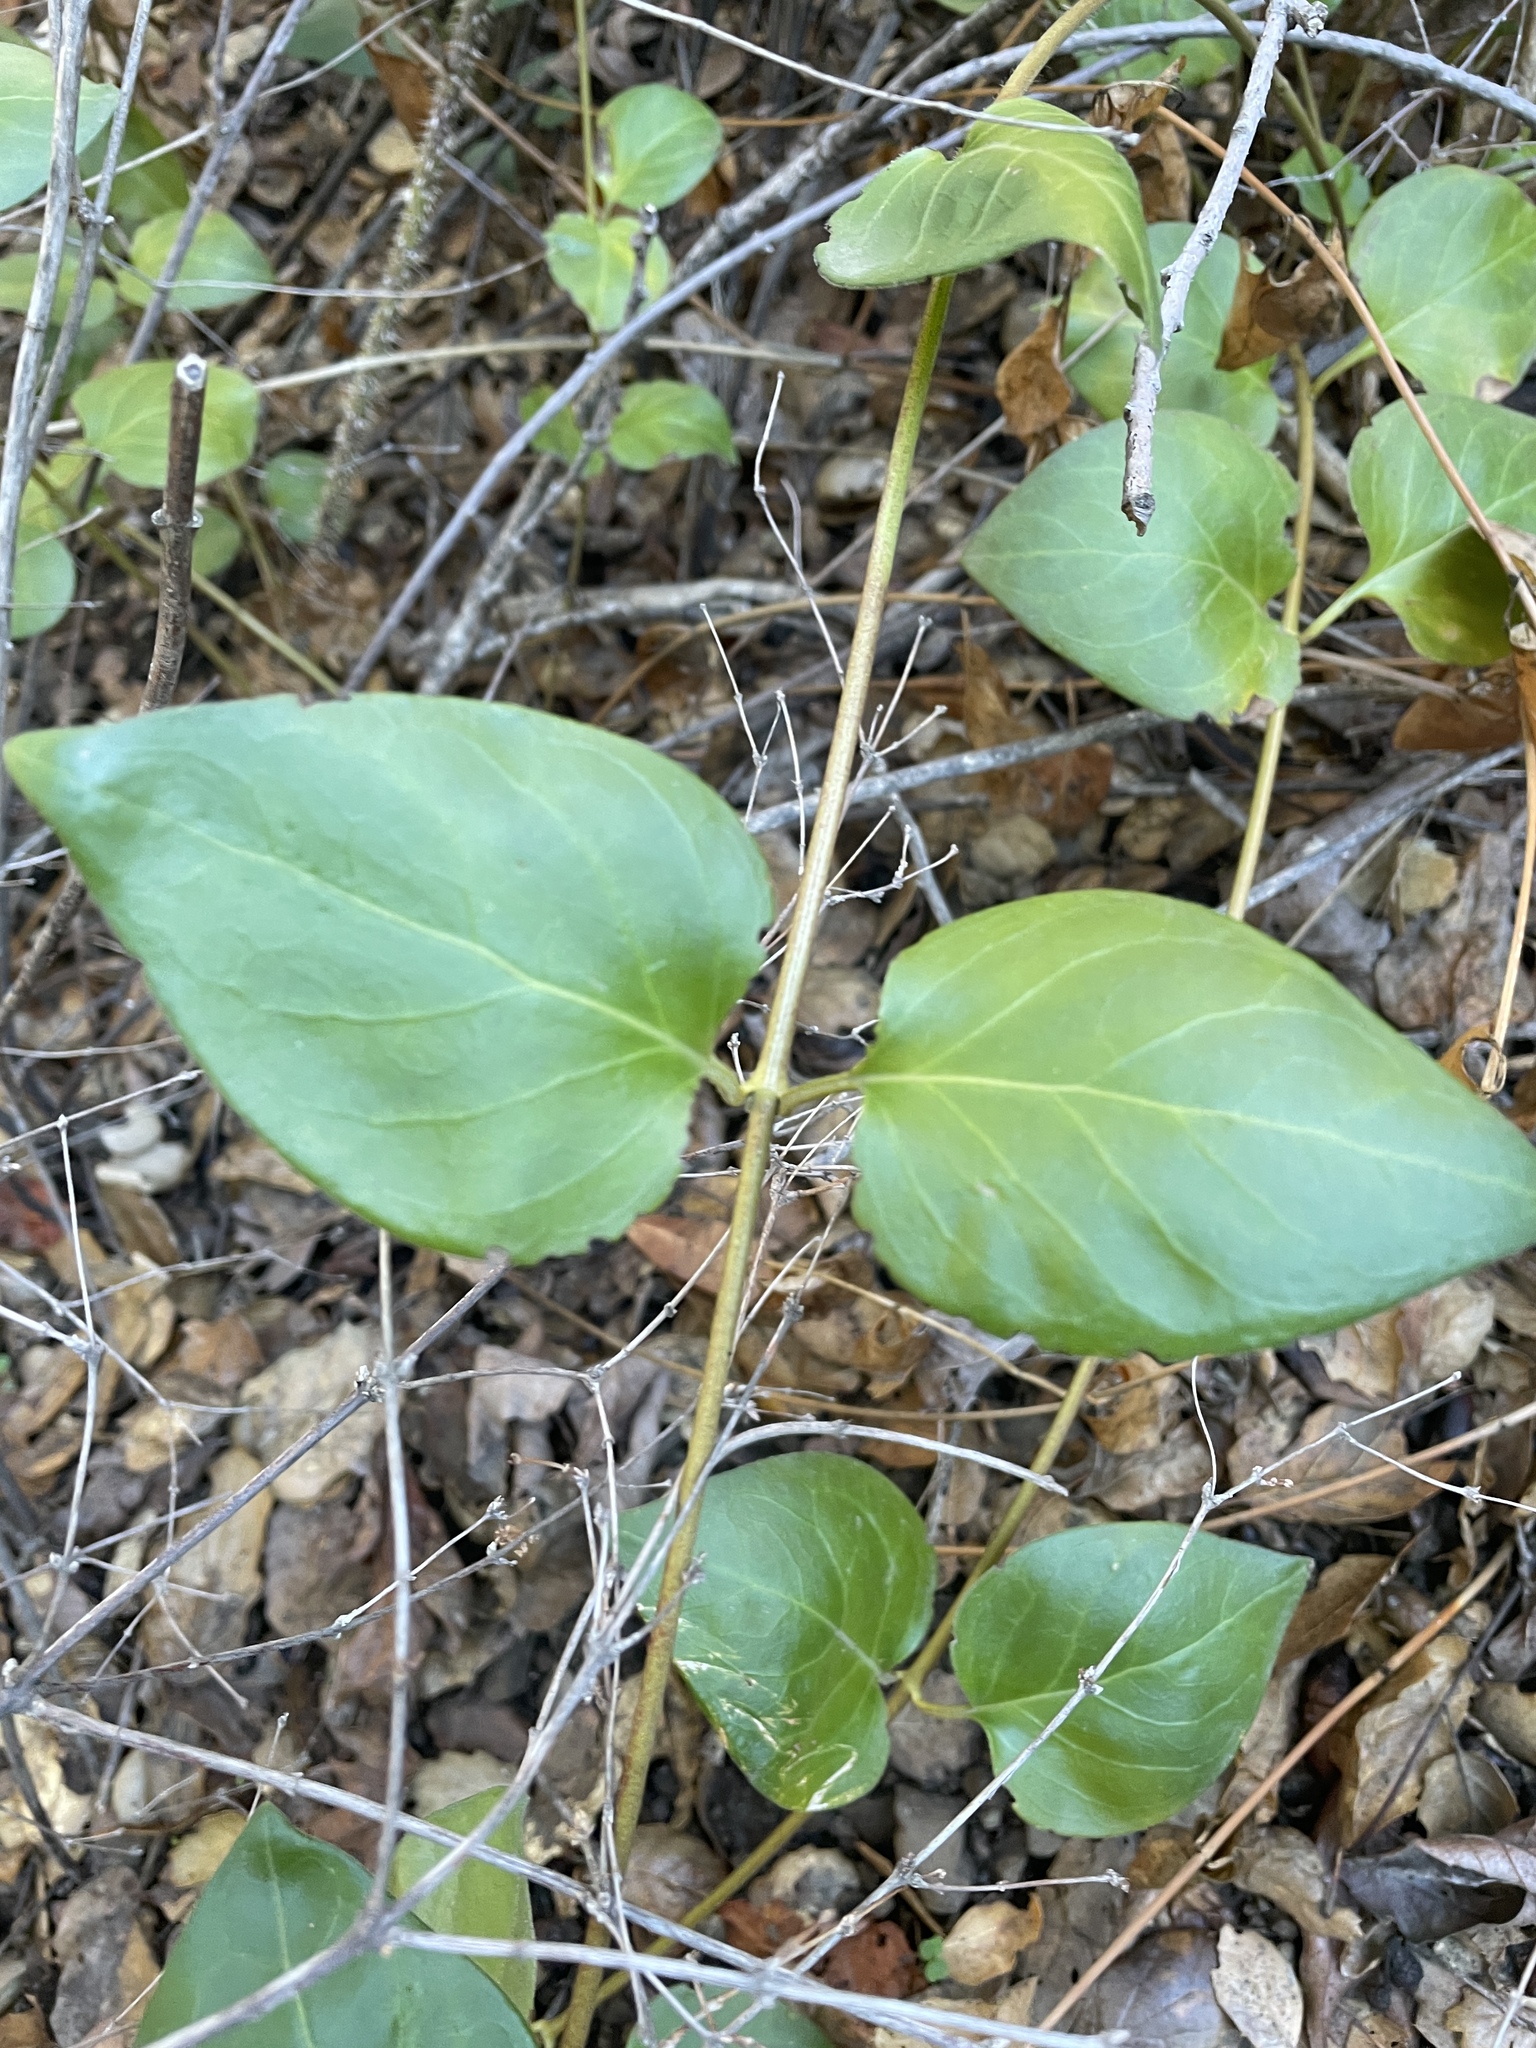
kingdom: Plantae
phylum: Tracheophyta
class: Magnoliopsida
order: Gentianales
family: Apocynaceae
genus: Vinca
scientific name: Vinca major
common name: Greater periwinkle
